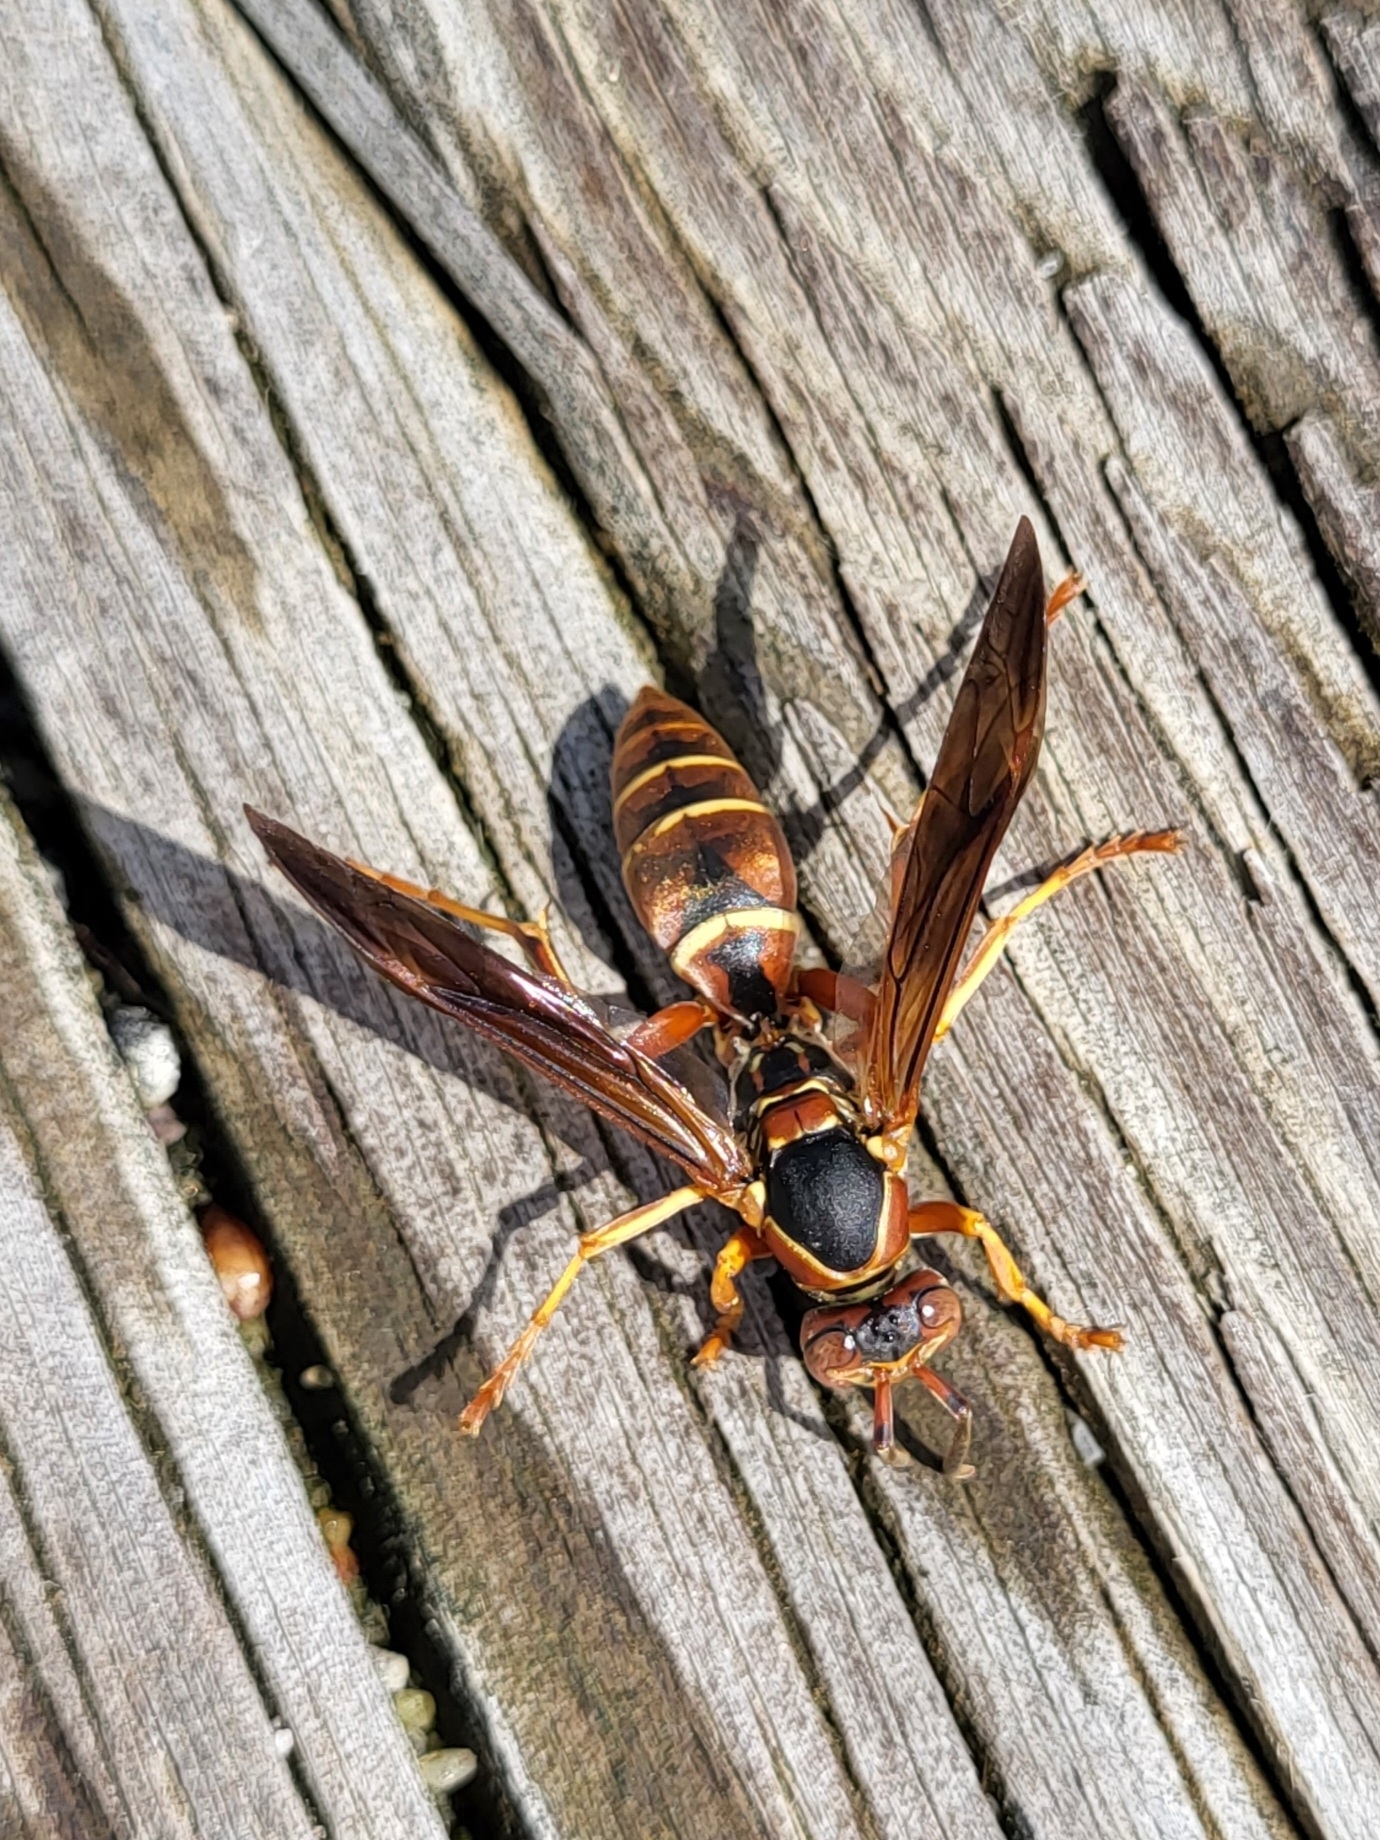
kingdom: Animalia
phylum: Arthropoda
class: Insecta
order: Hymenoptera
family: Eumenidae
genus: Polistes
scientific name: Polistes fuscatus
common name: Dark paper wasp
